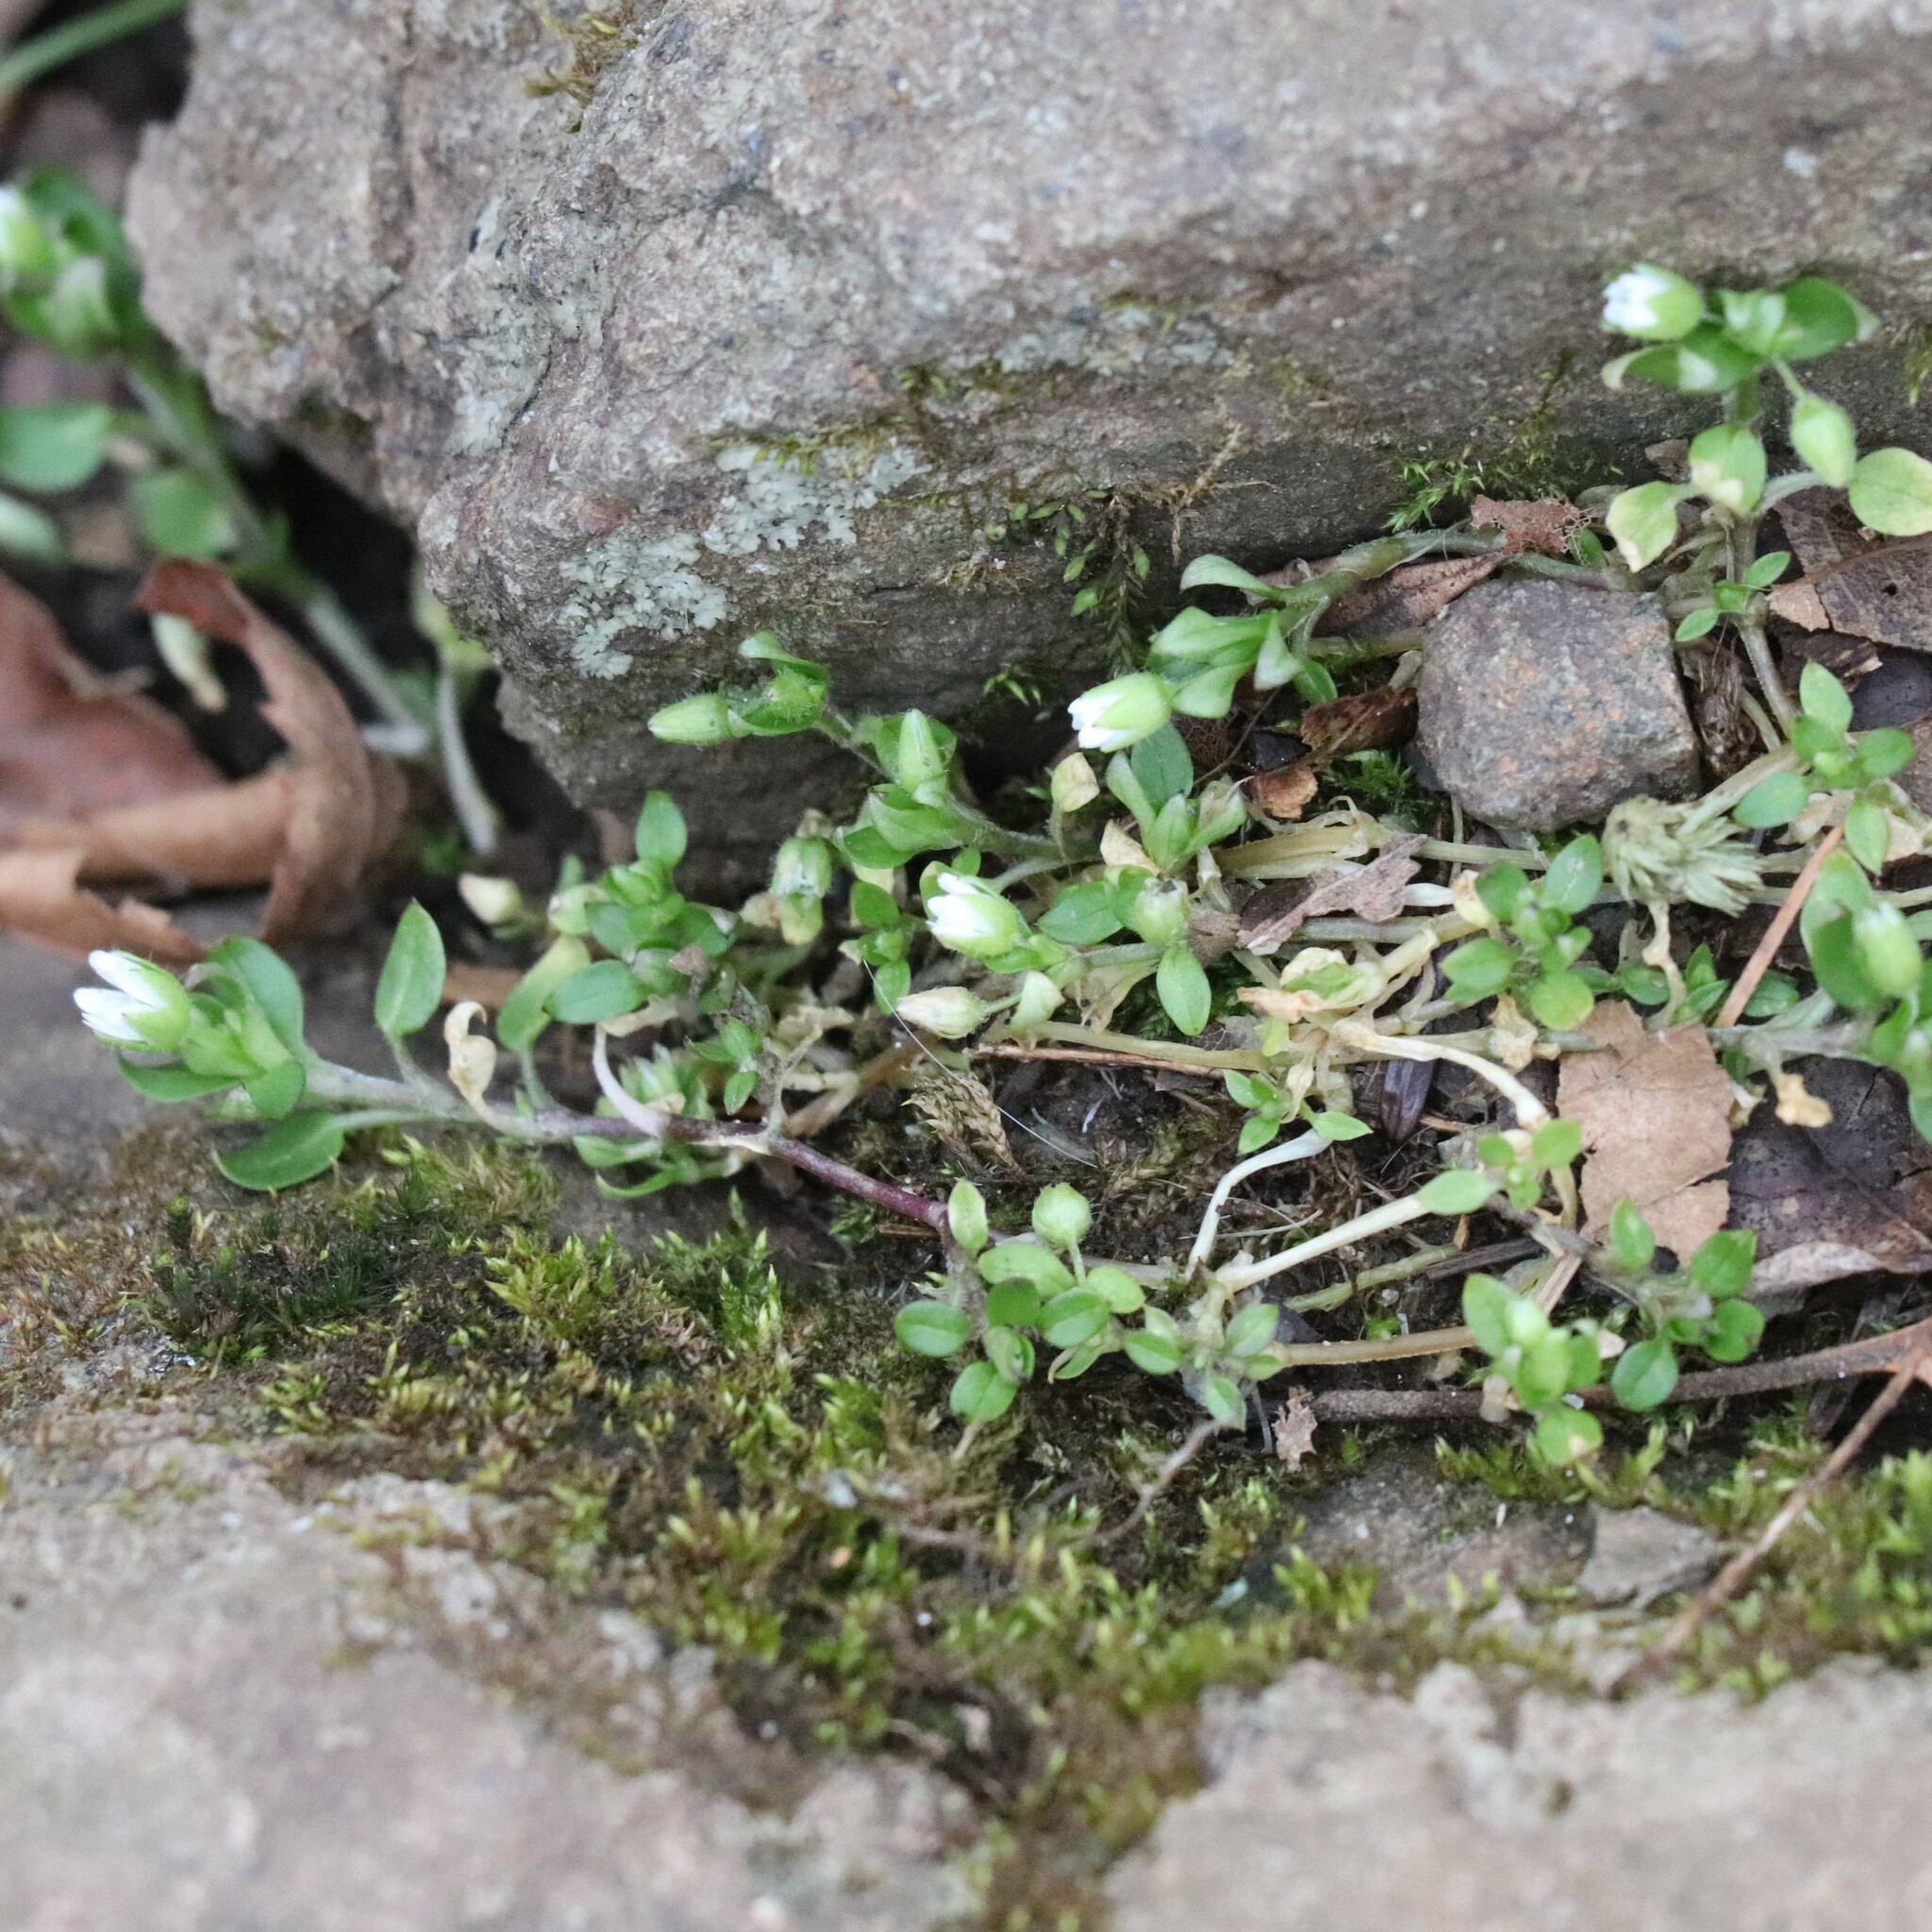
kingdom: Plantae
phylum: Tracheophyta
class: Magnoliopsida
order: Caryophyllales
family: Caryophyllaceae
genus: Stellaria
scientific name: Stellaria media
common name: Common chickweed
